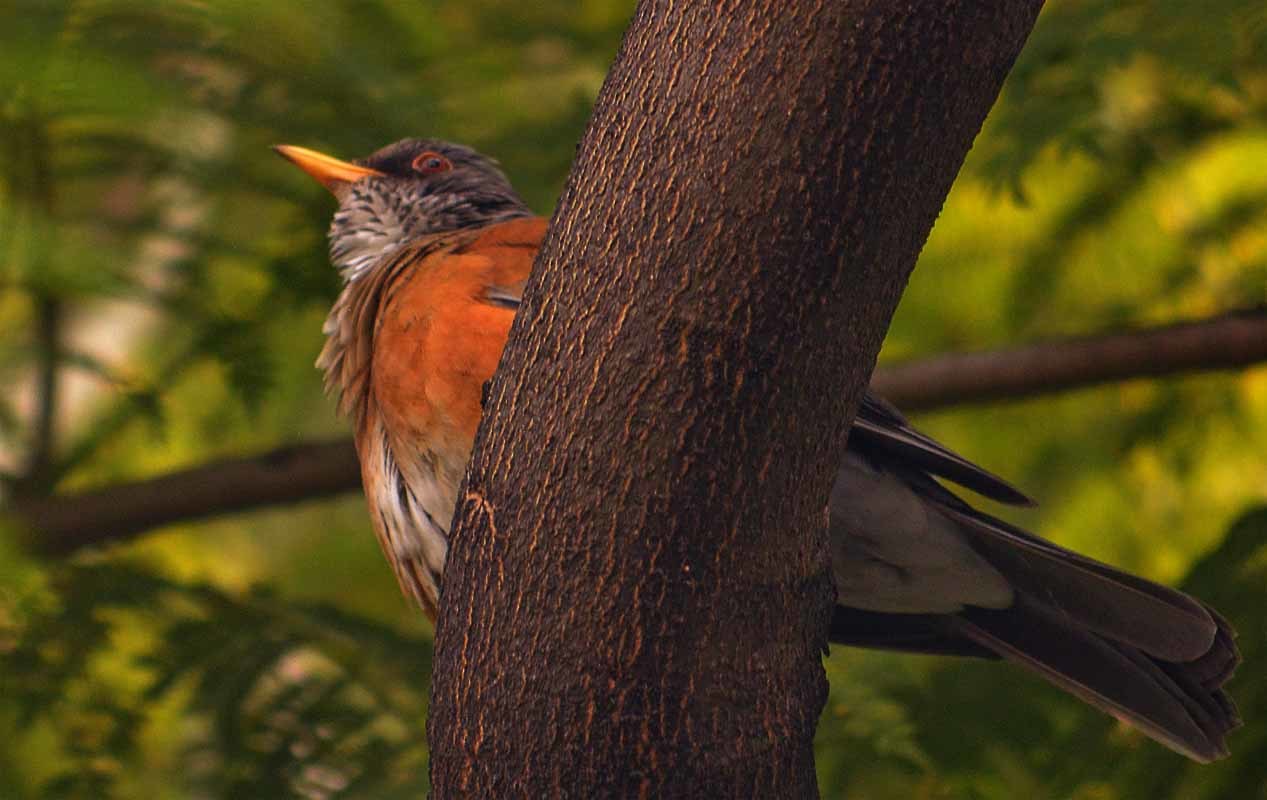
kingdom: Animalia
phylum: Chordata
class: Aves
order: Passeriformes
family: Turdidae
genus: Turdus
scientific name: Turdus rufopalliatus
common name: Rufous-backed robin
